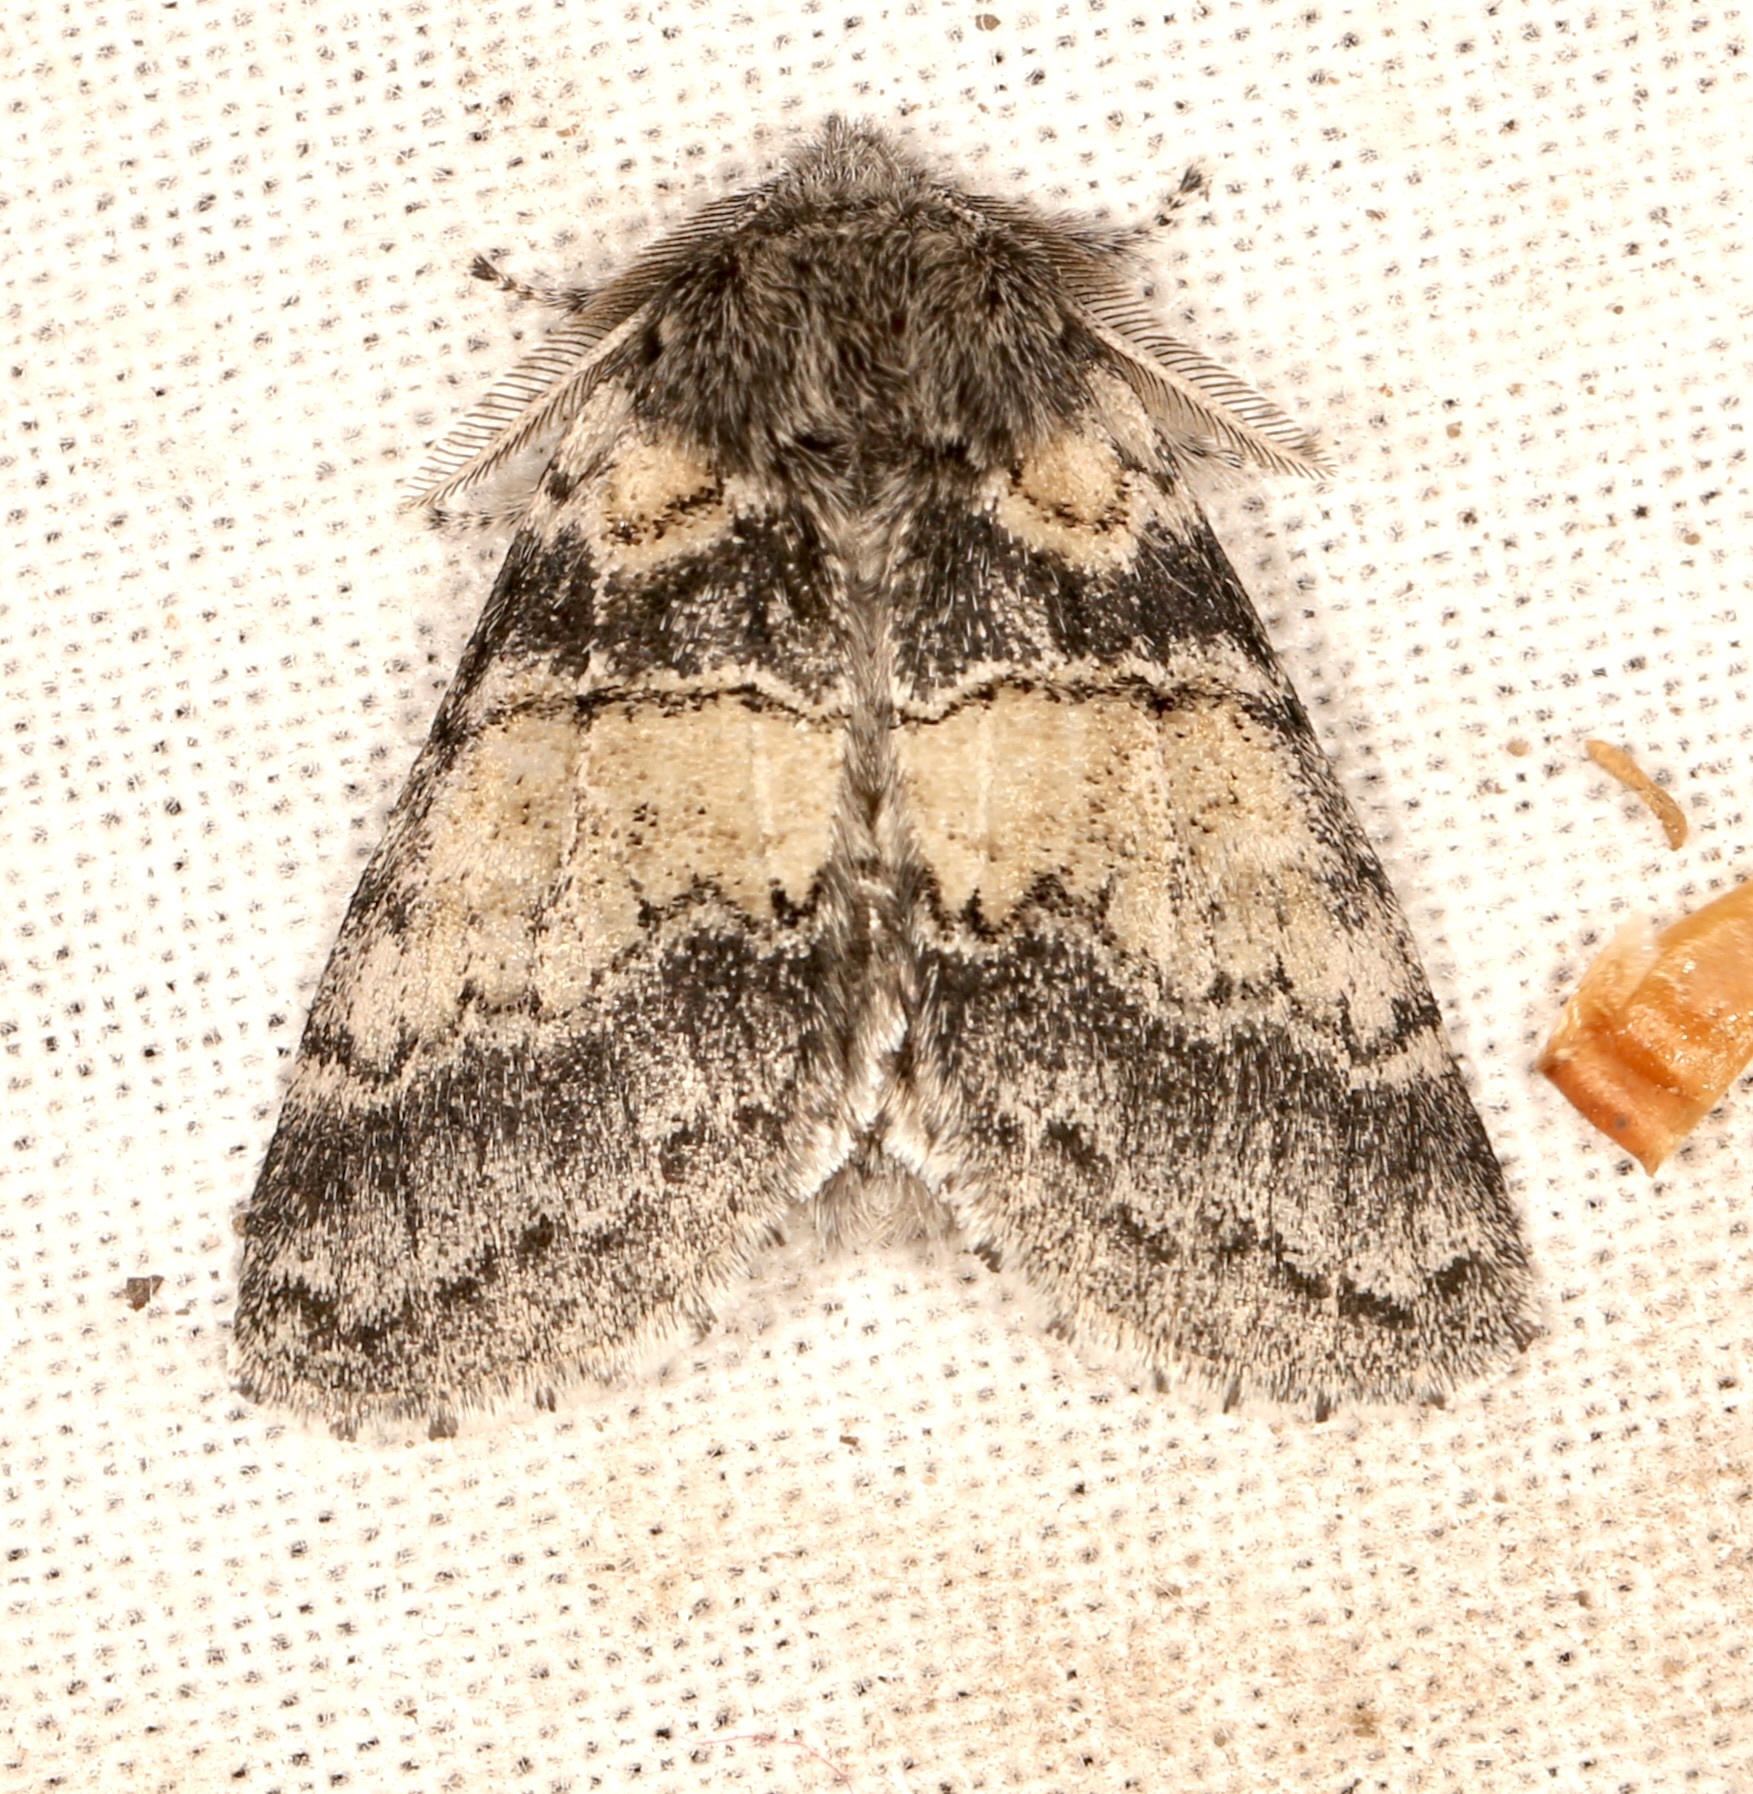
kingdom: Animalia
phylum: Arthropoda
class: Insecta
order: Lepidoptera
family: Notodontidae
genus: Gluphisia
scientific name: Gluphisia septentrionis
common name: Common gluphisia
